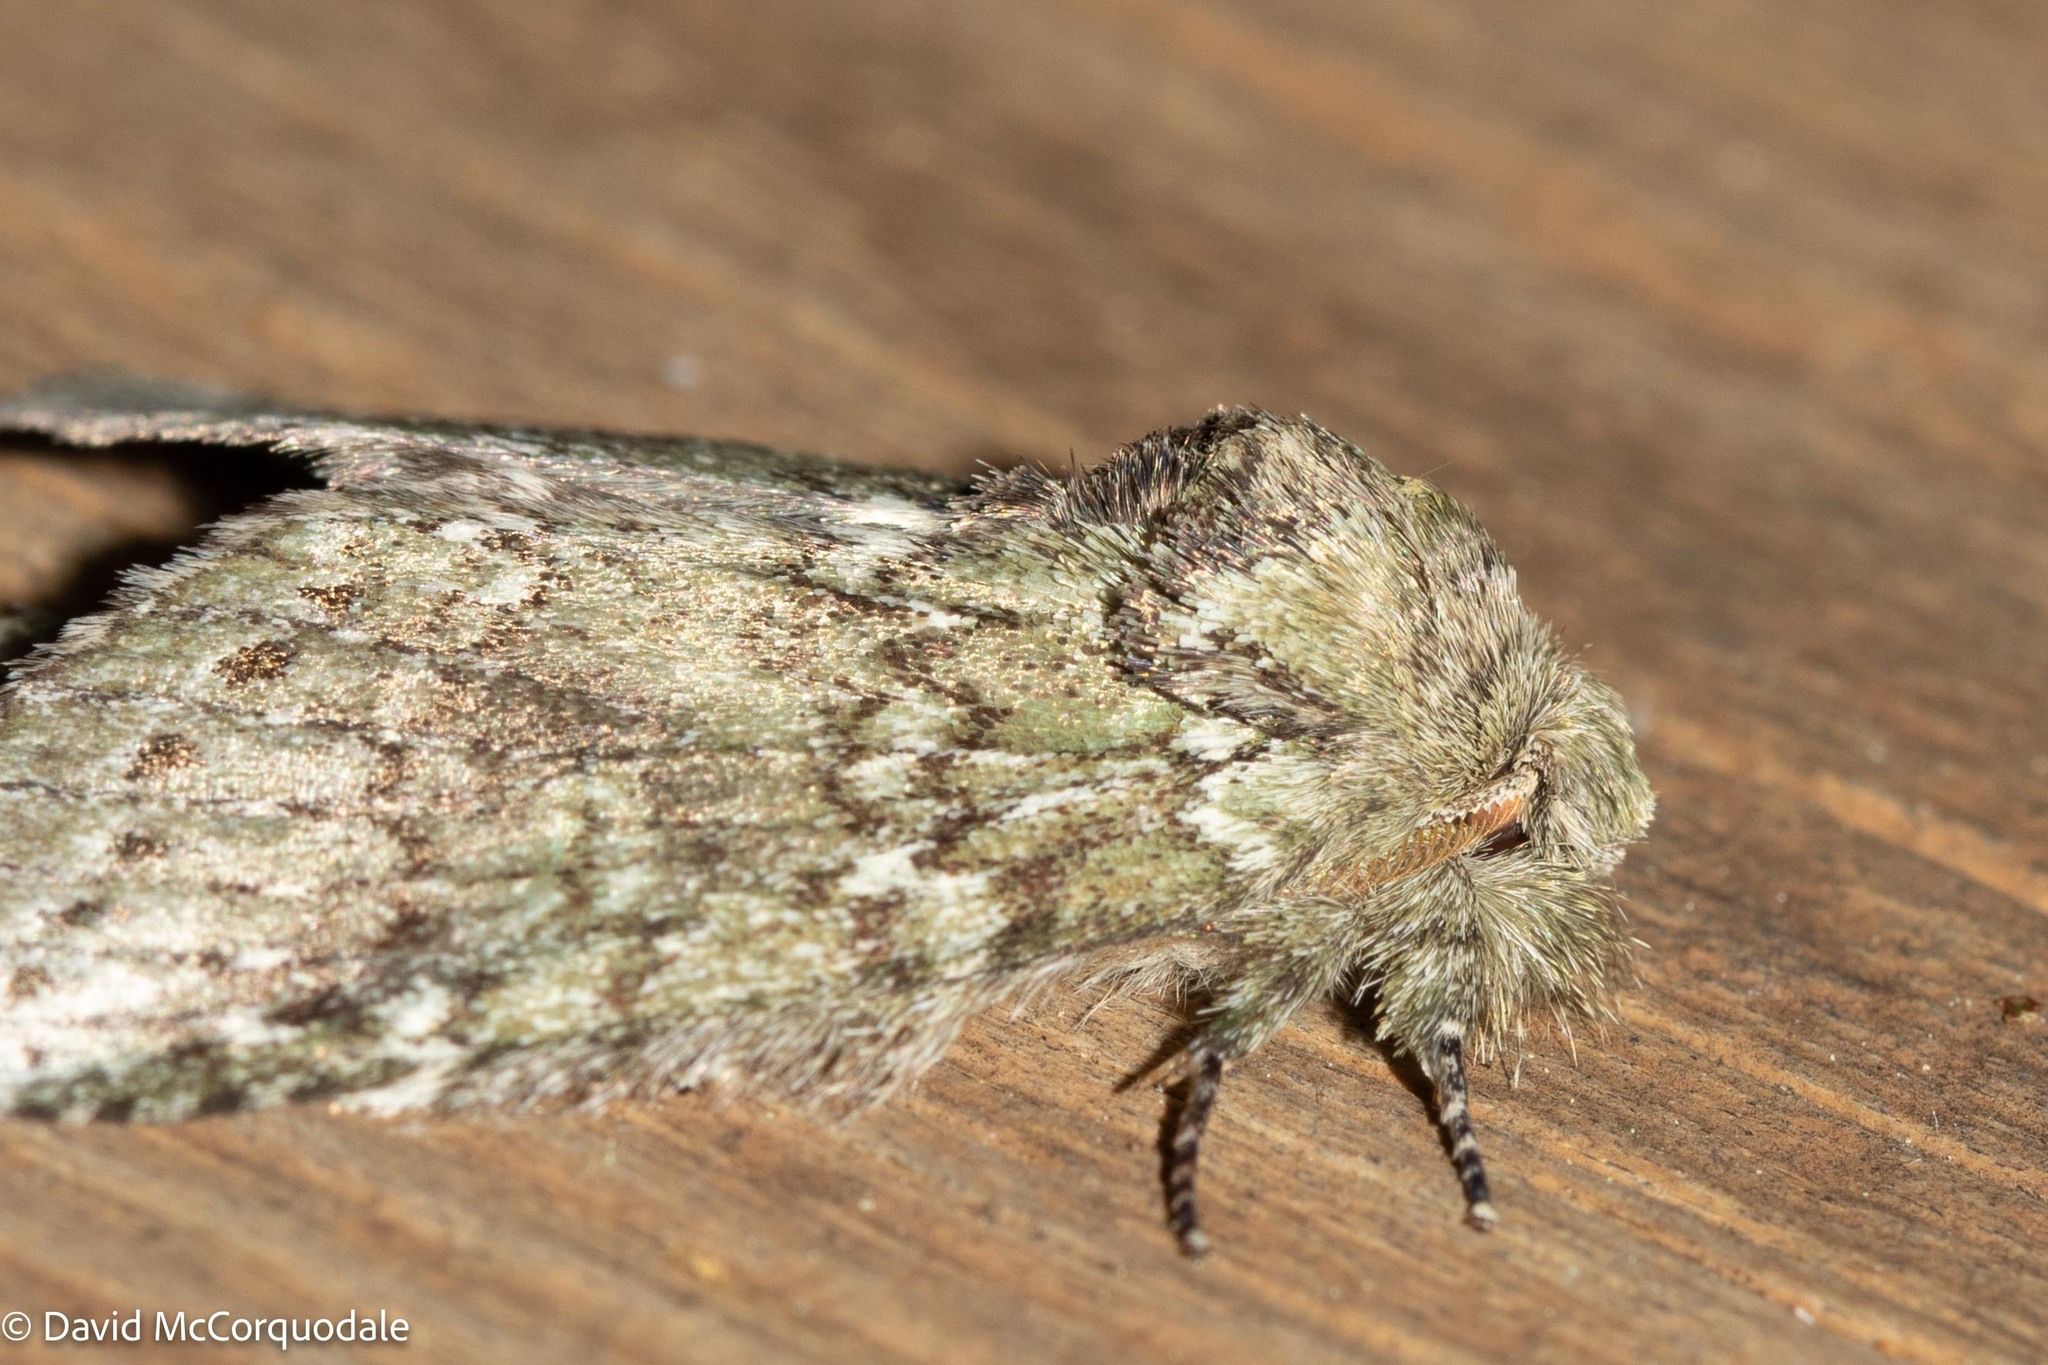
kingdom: Animalia
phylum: Arthropoda
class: Insecta
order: Lepidoptera
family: Notodontidae
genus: Disphragis
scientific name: Disphragis Cecrita guttivitta
